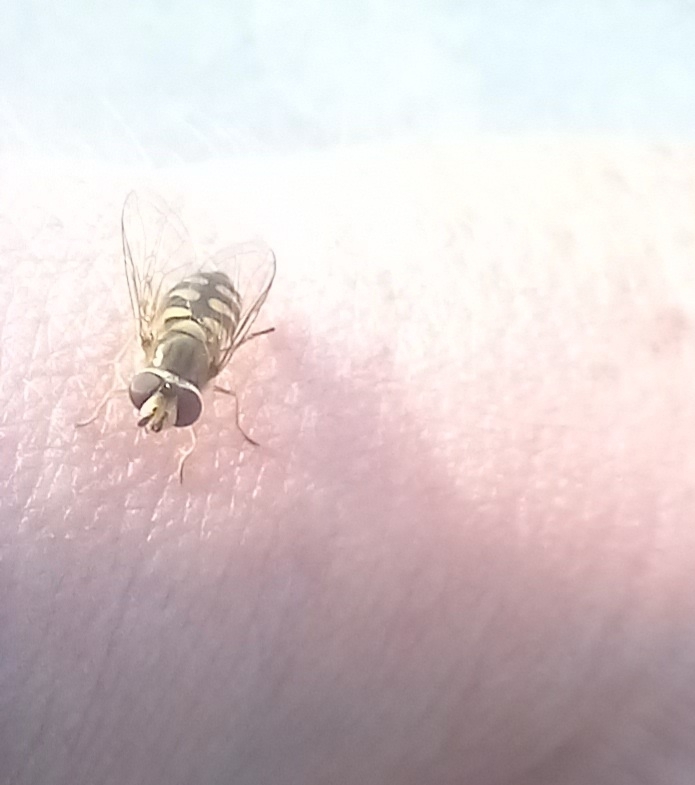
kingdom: Animalia
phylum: Arthropoda
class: Insecta
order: Diptera
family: Syrphidae
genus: Eupeodes
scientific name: Eupeodes corollae
